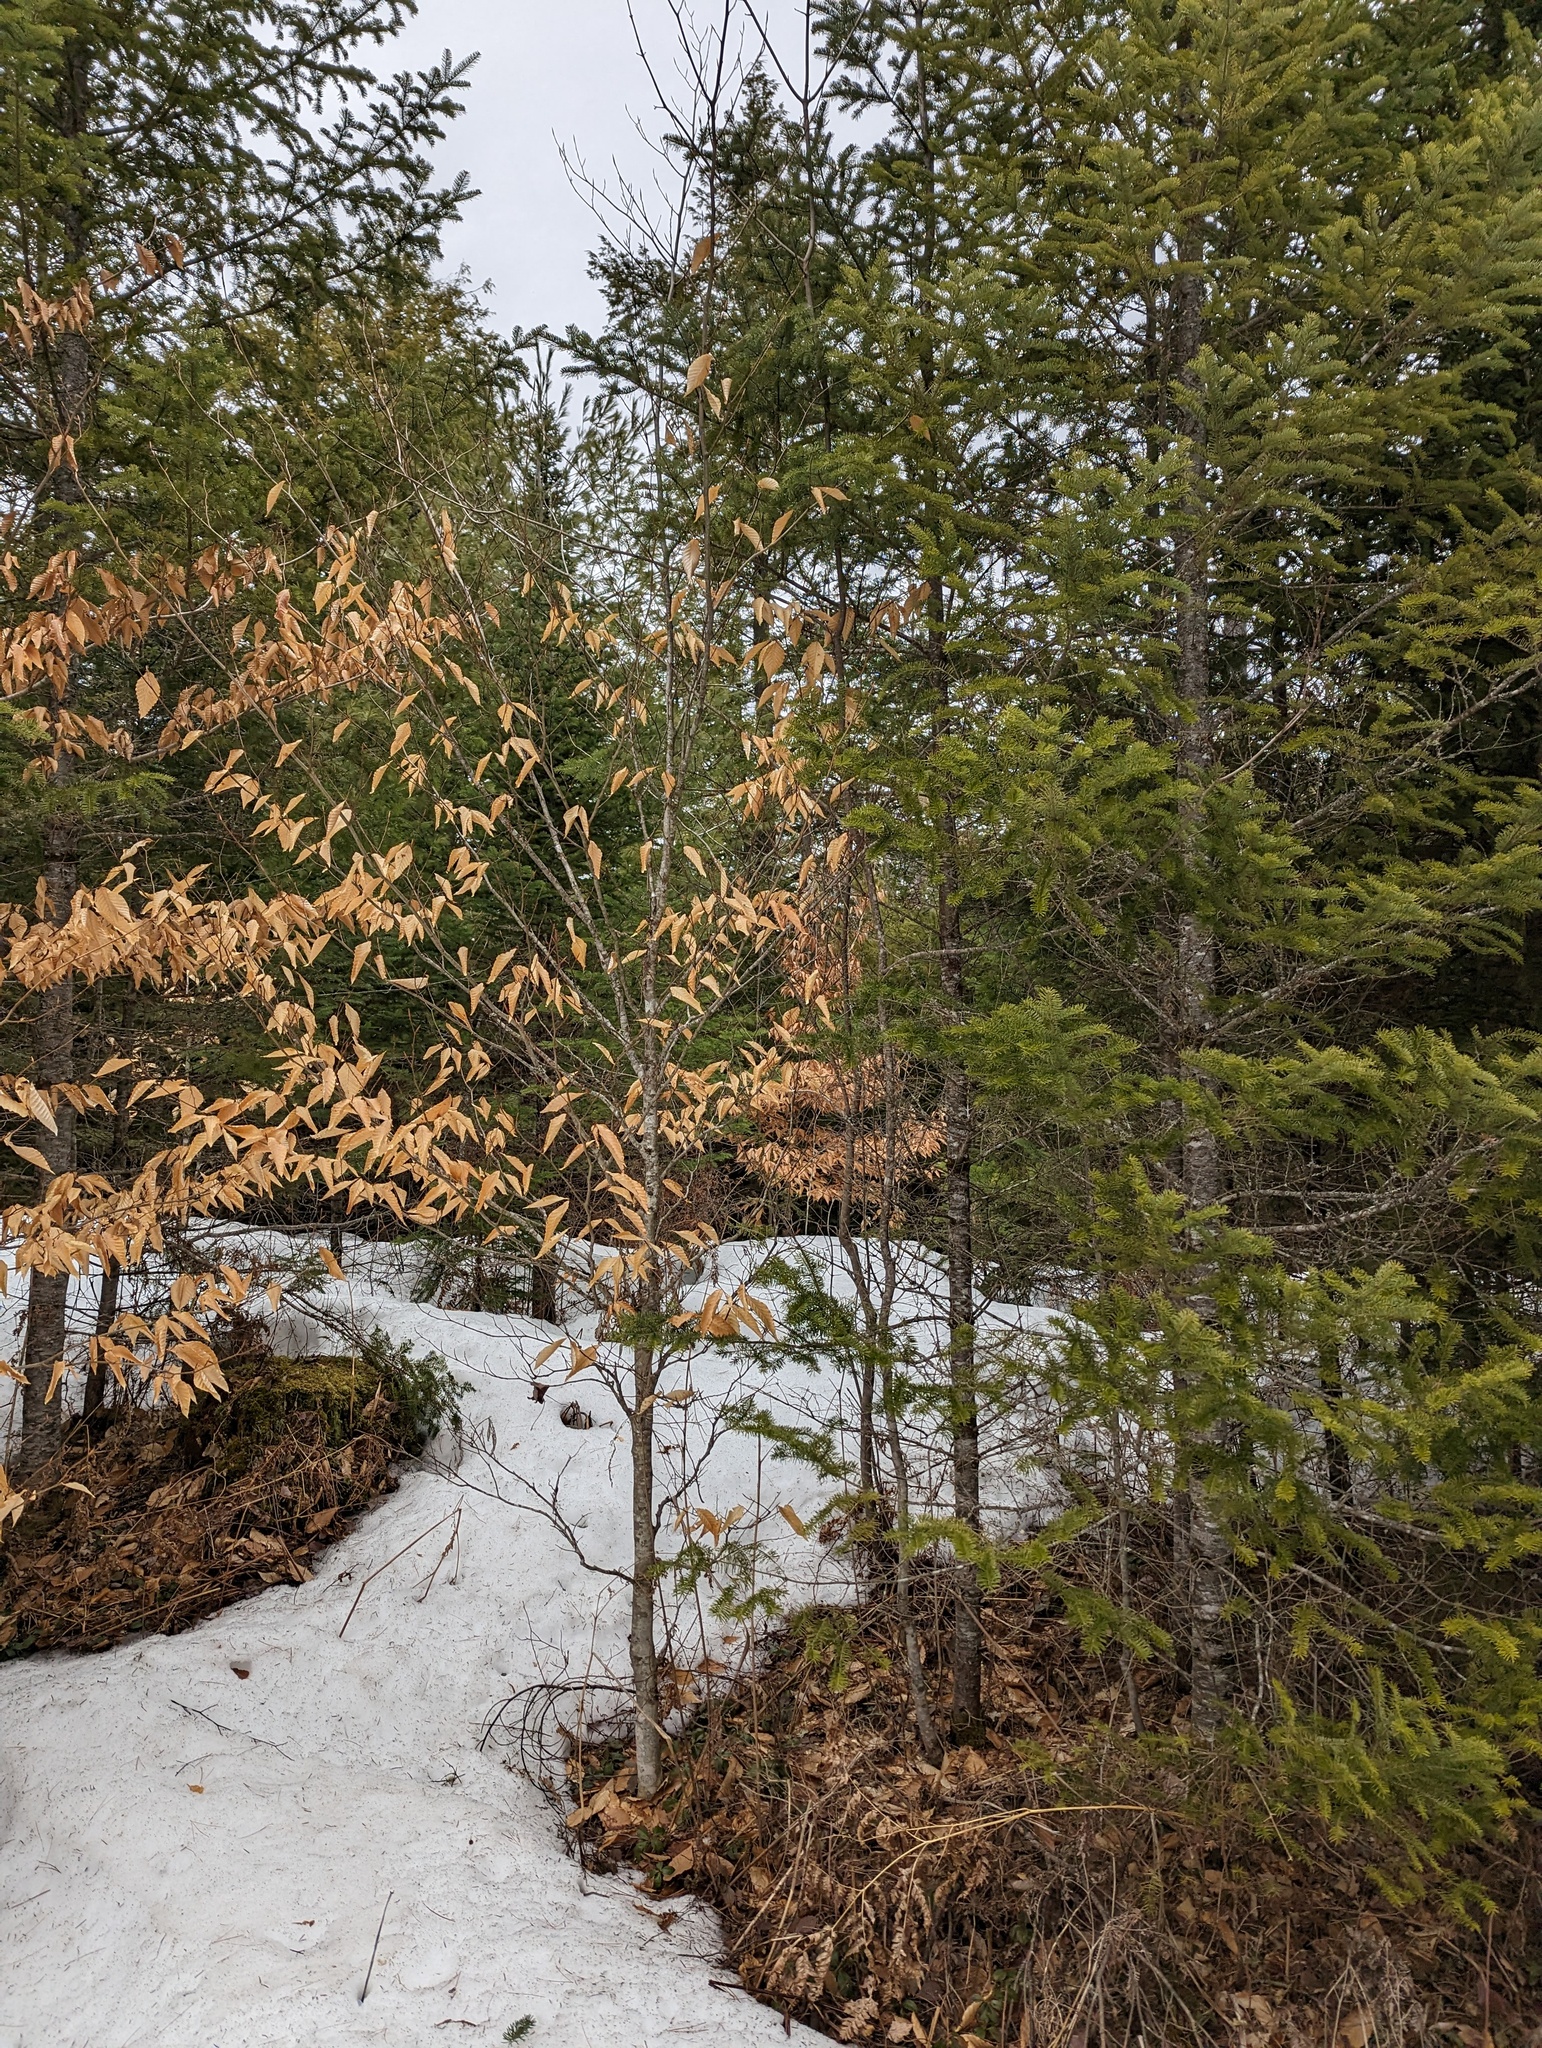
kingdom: Plantae
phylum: Tracheophyta
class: Magnoliopsida
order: Fagales
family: Fagaceae
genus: Fagus
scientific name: Fagus grandifolia
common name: American beech
